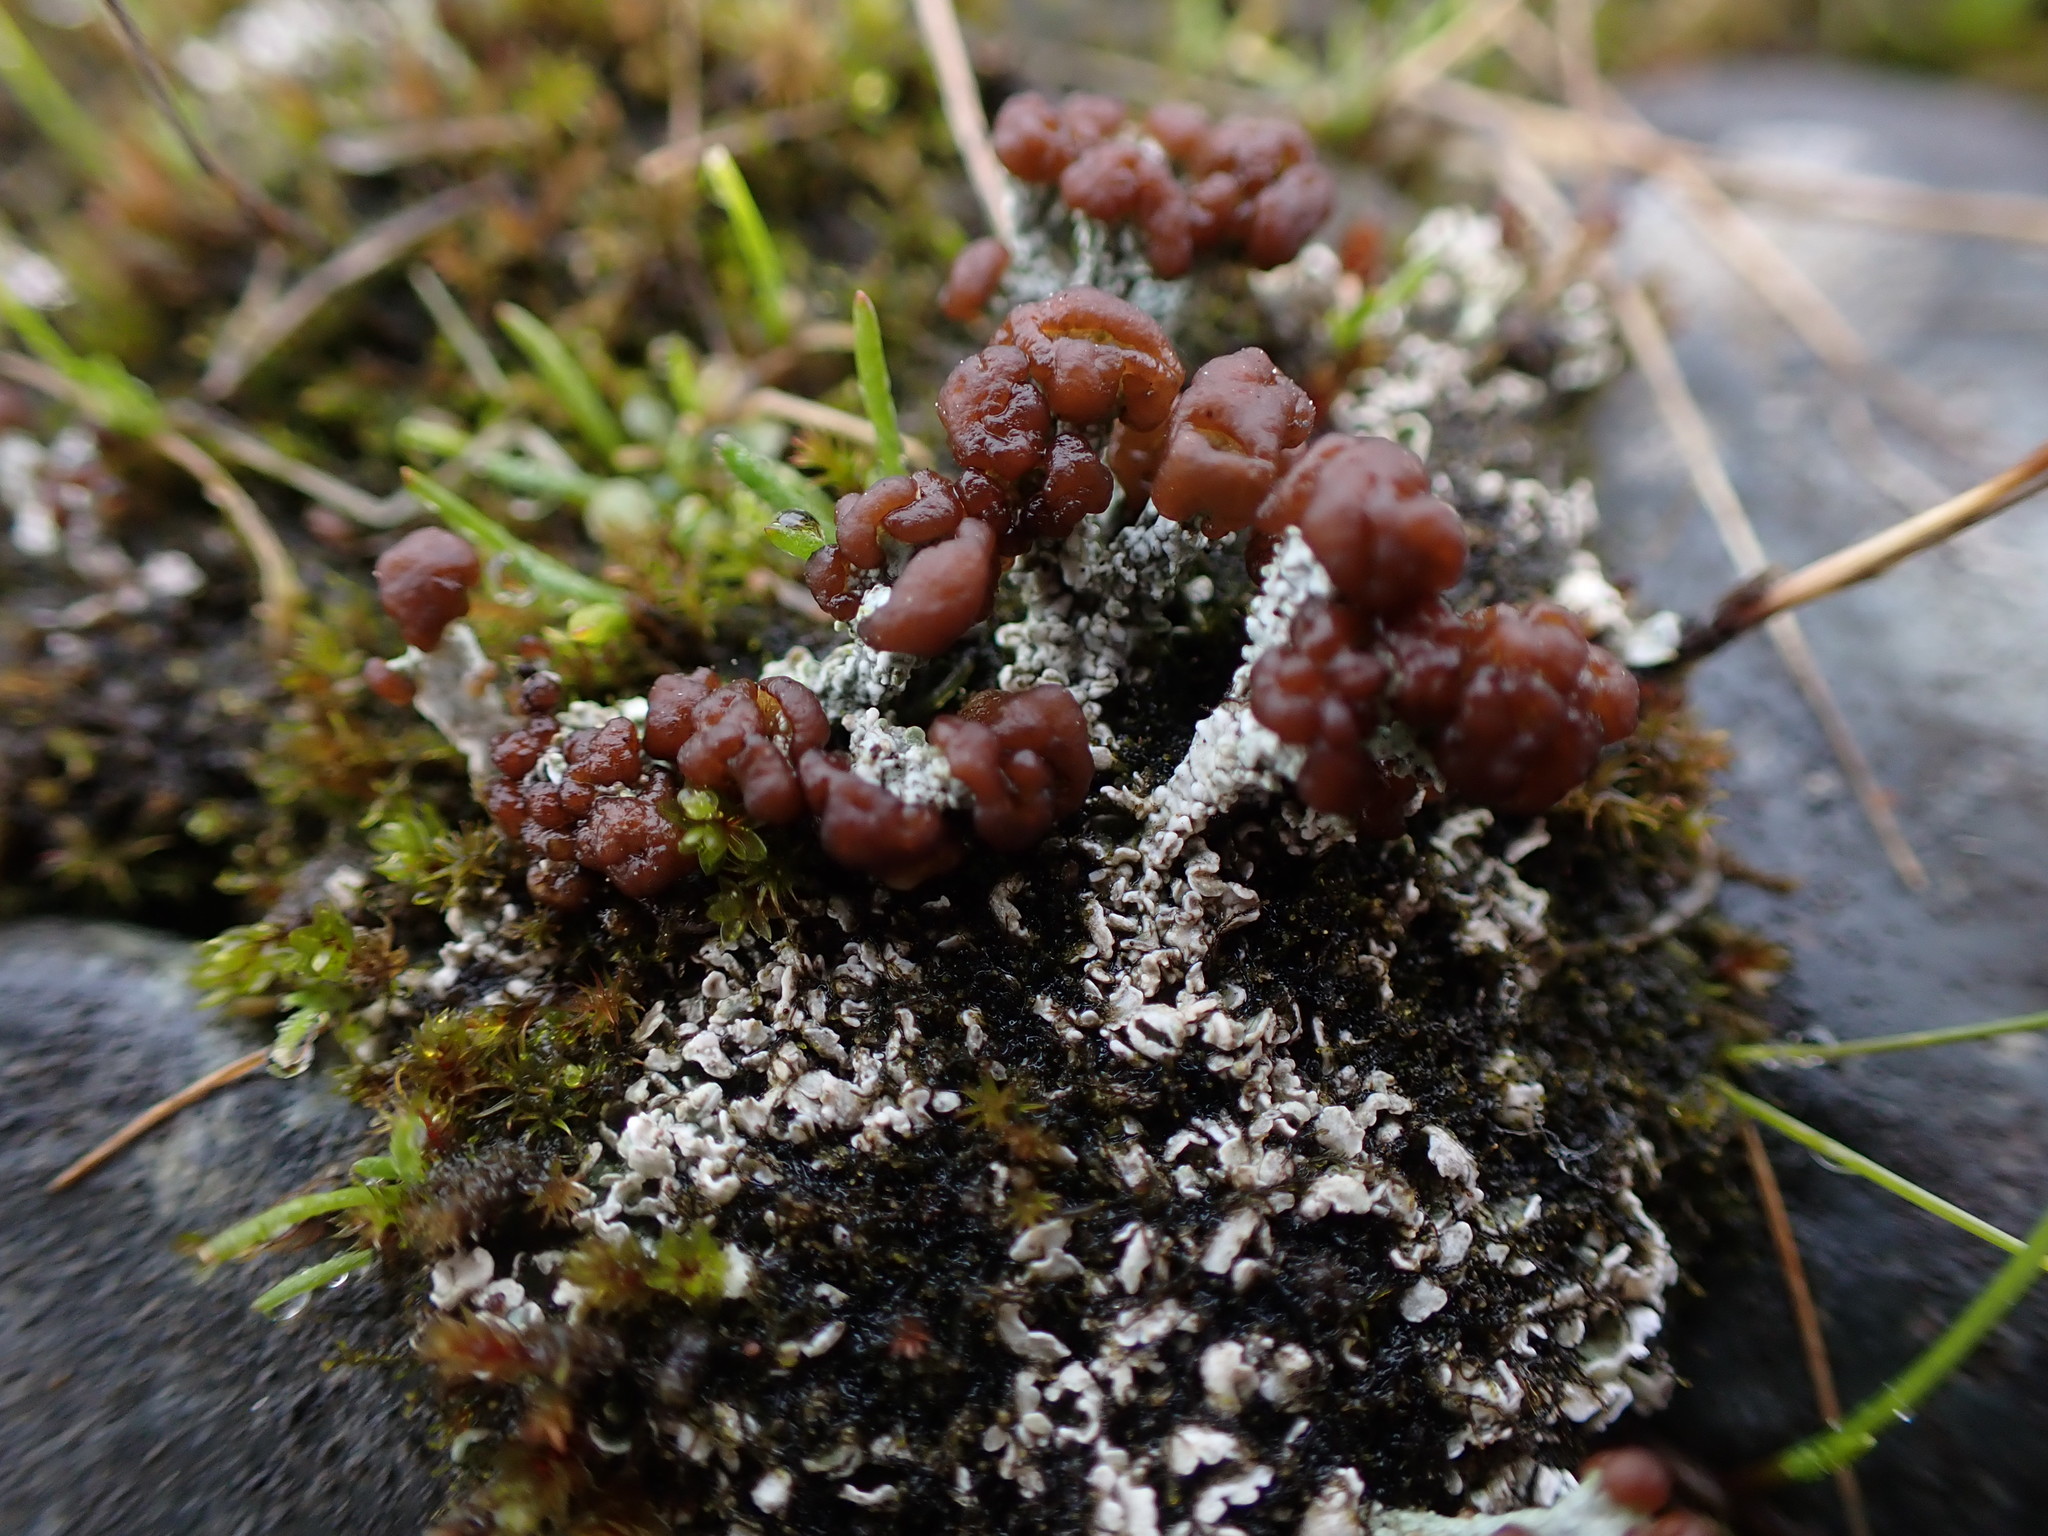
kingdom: Fungi
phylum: Ascomycota
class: Lecanoromycetes
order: Lecanorales
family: Cladoniaceae
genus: Cladonia
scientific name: Cladonia cariosa
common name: Split-peg lichen
